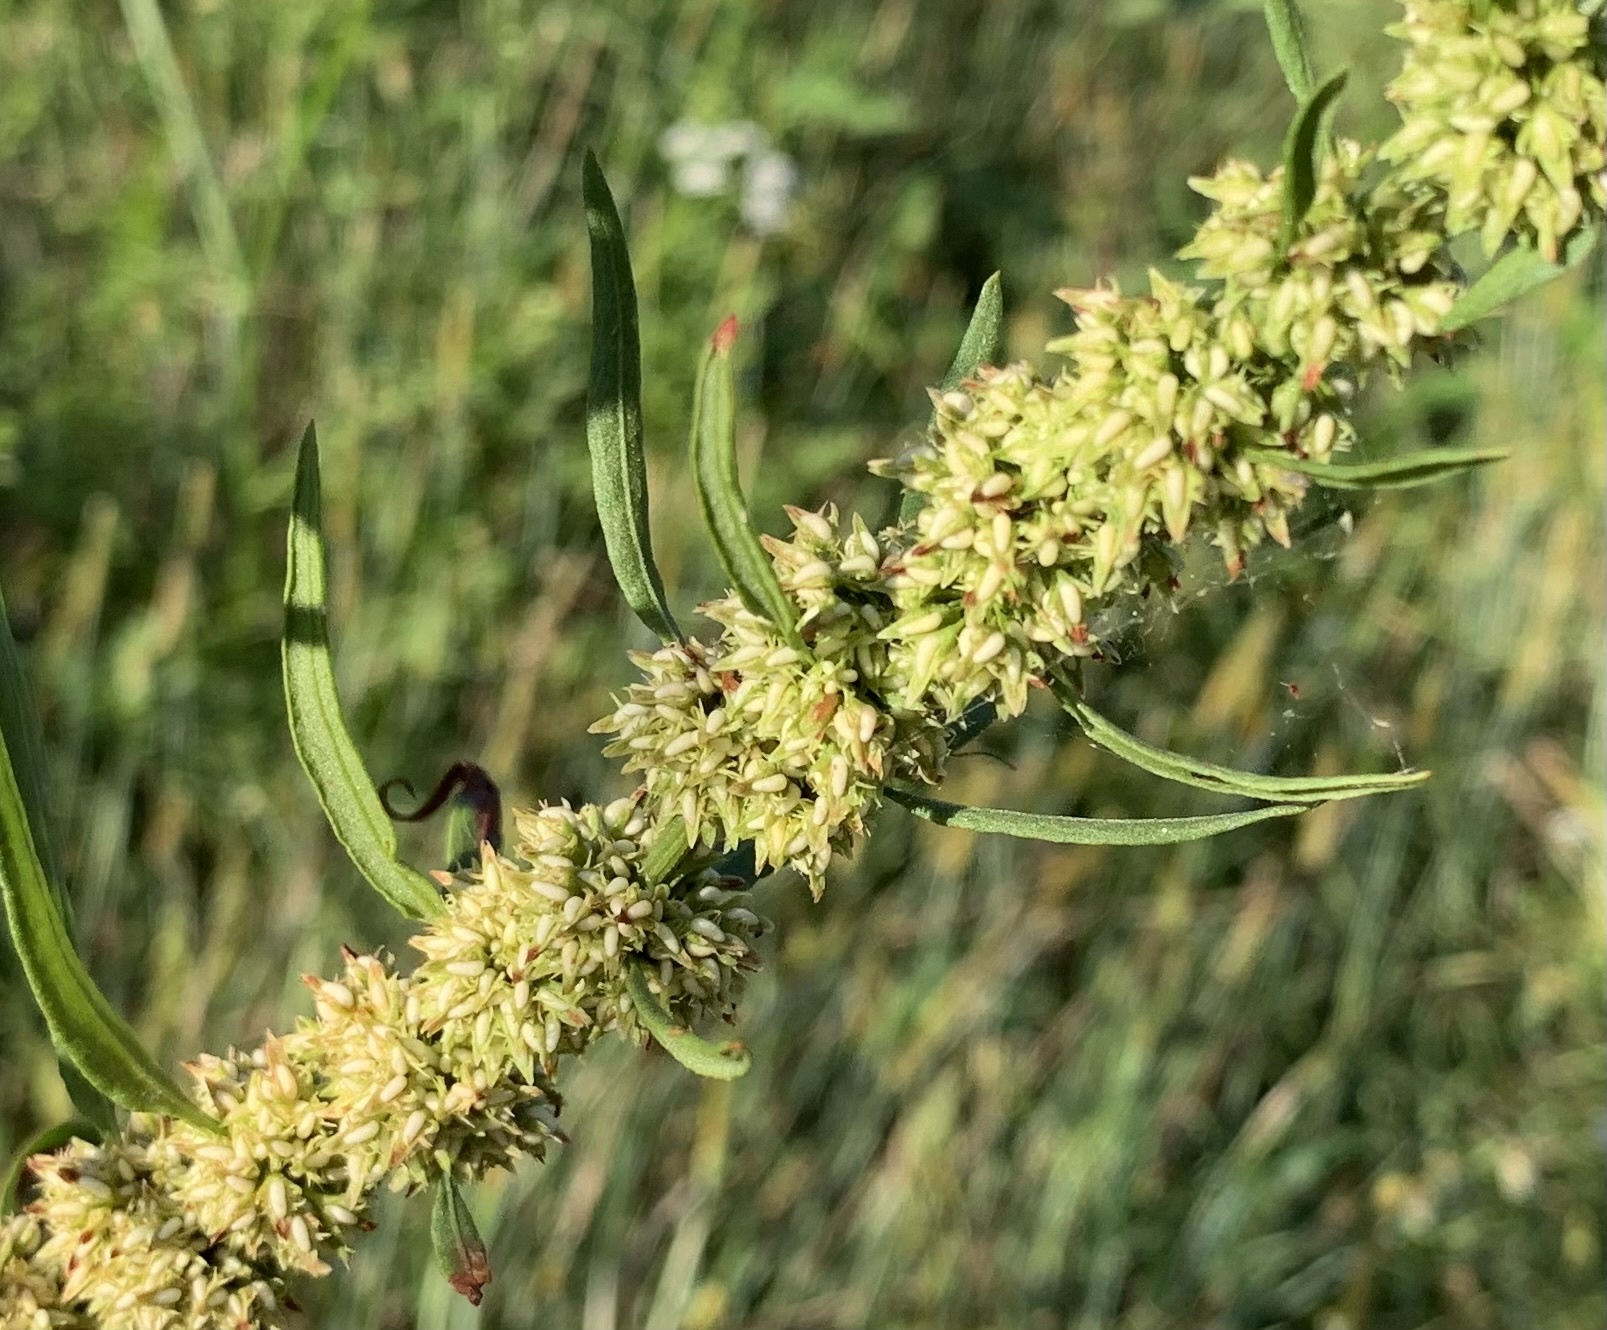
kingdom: Plantae
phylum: Tracheophyta
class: Magnoliopsida
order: Caryophyllales
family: Polygonaceae
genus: Rumex
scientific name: Rumex palustris
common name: Marsh dock
